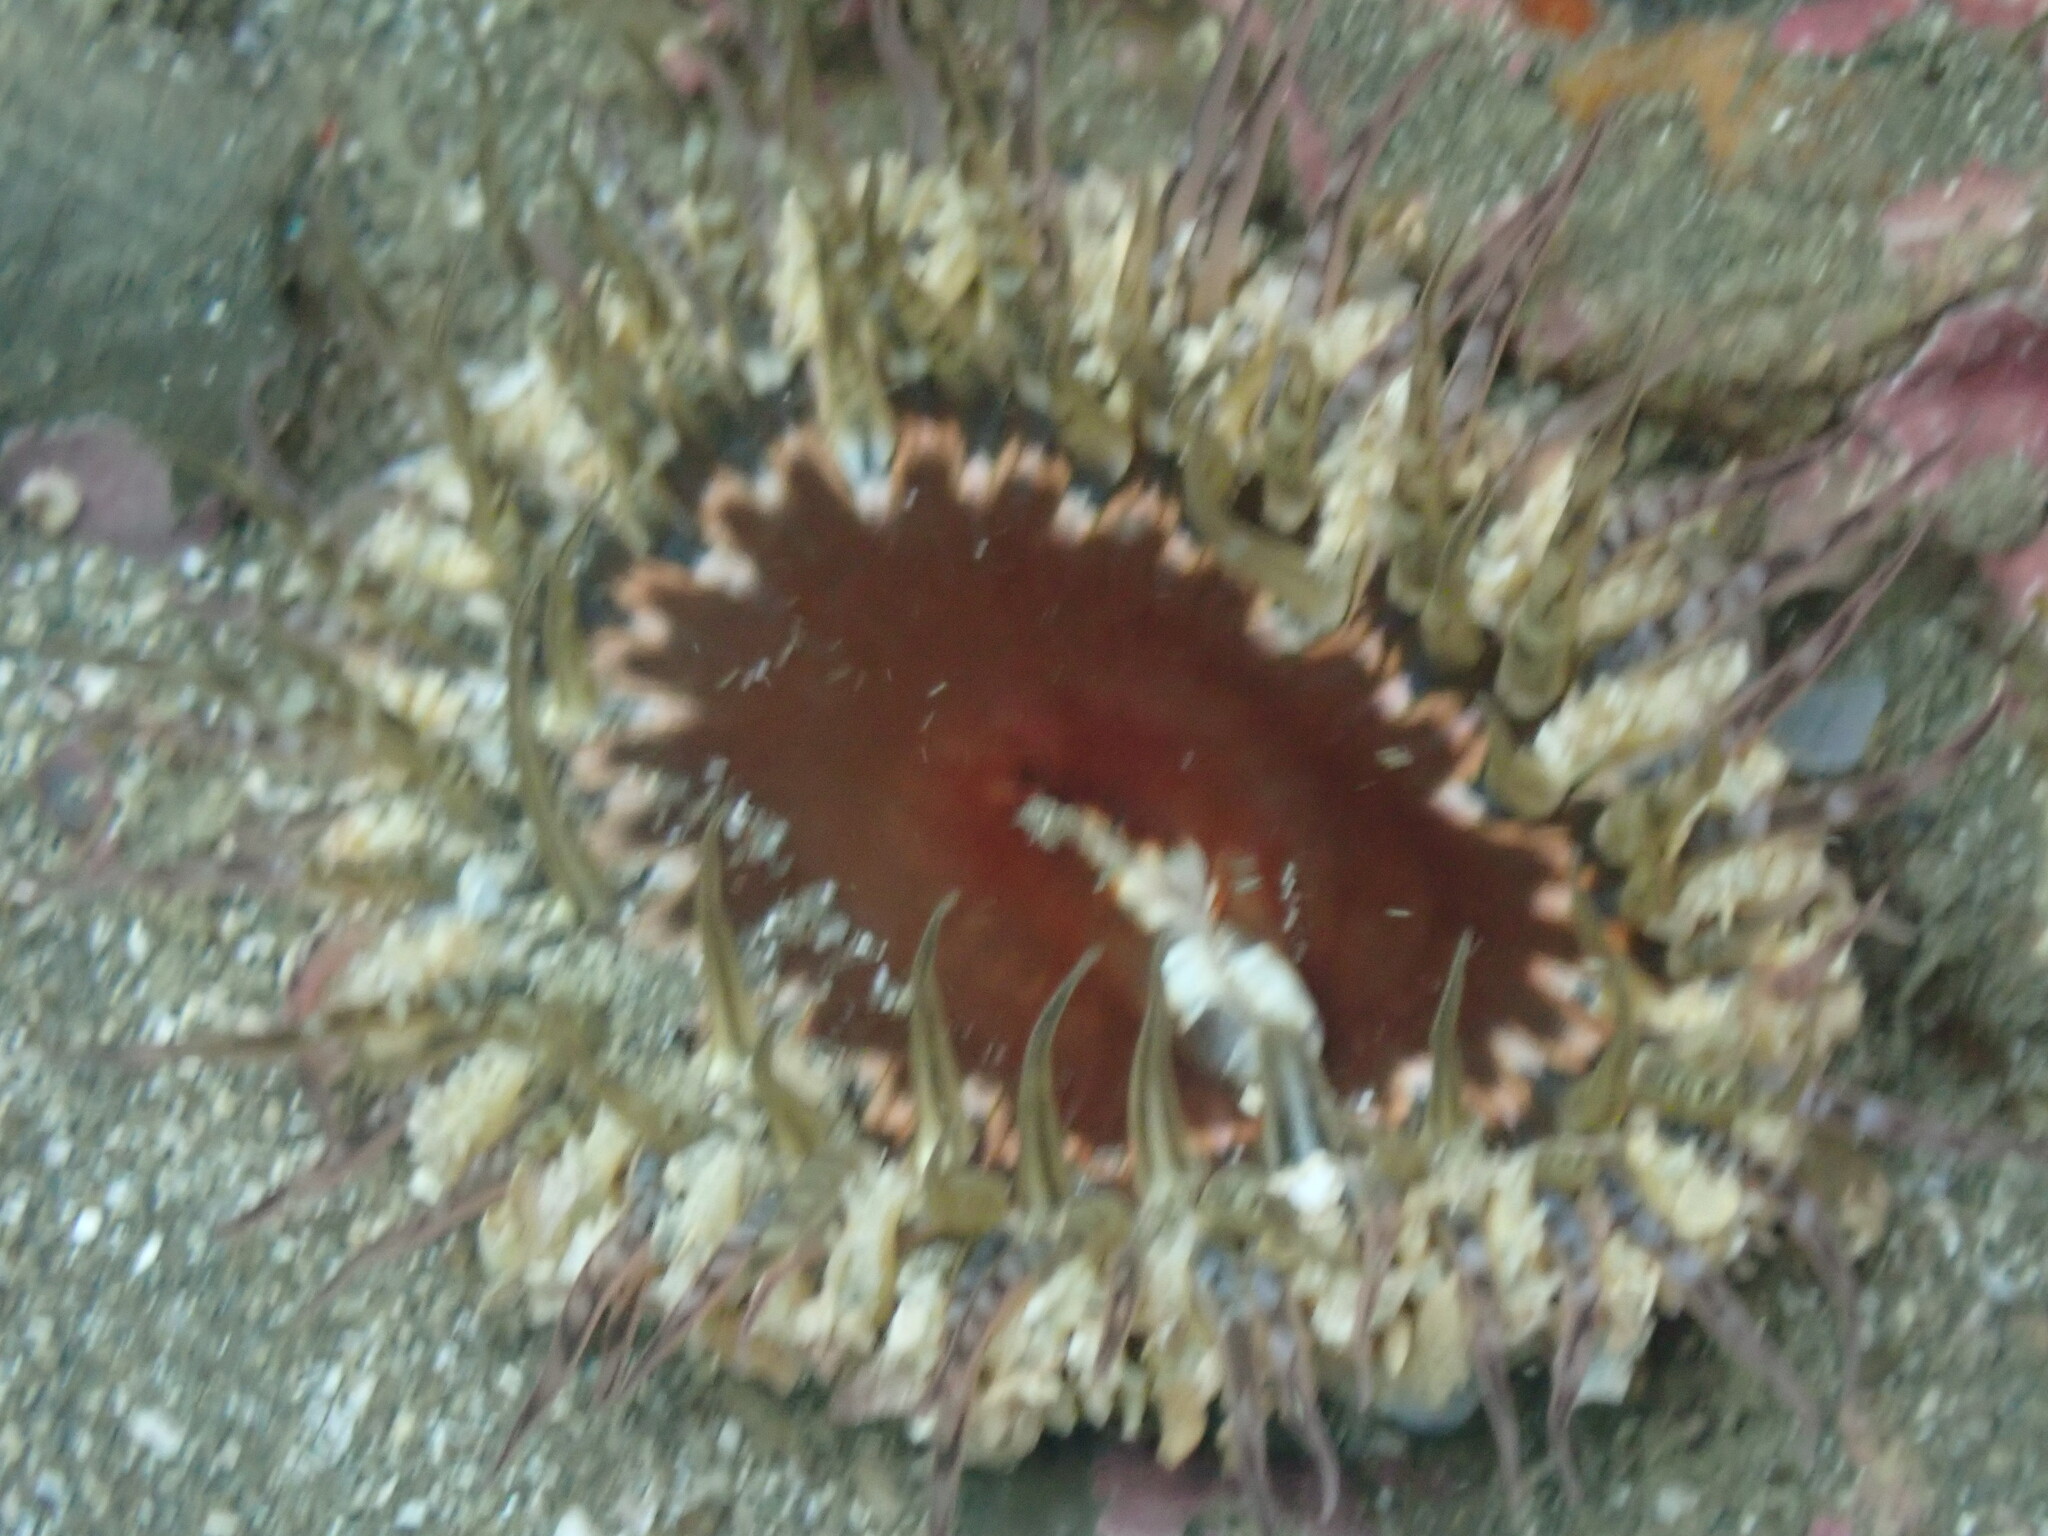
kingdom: Animalia
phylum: Cnidaria
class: Anthozoa
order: Actiniaria
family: Actiniidae
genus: Oulactis
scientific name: Oulactis muscosa
